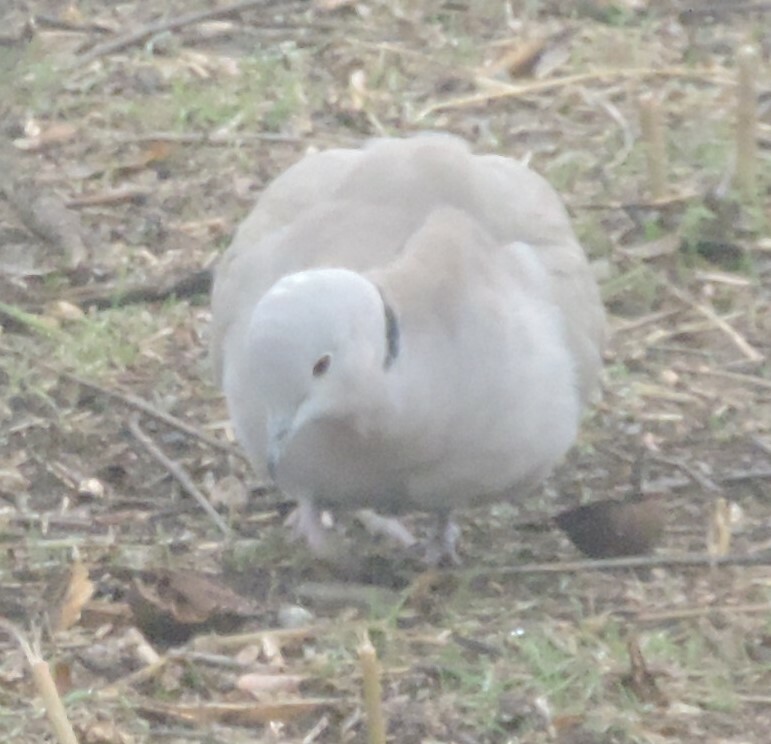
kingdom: Animalia
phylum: Chordata
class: Aves
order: Columbiformes
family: Columbidae
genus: Streptopelia
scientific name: Streptopelia decaocto
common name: Eurasian collared dove
